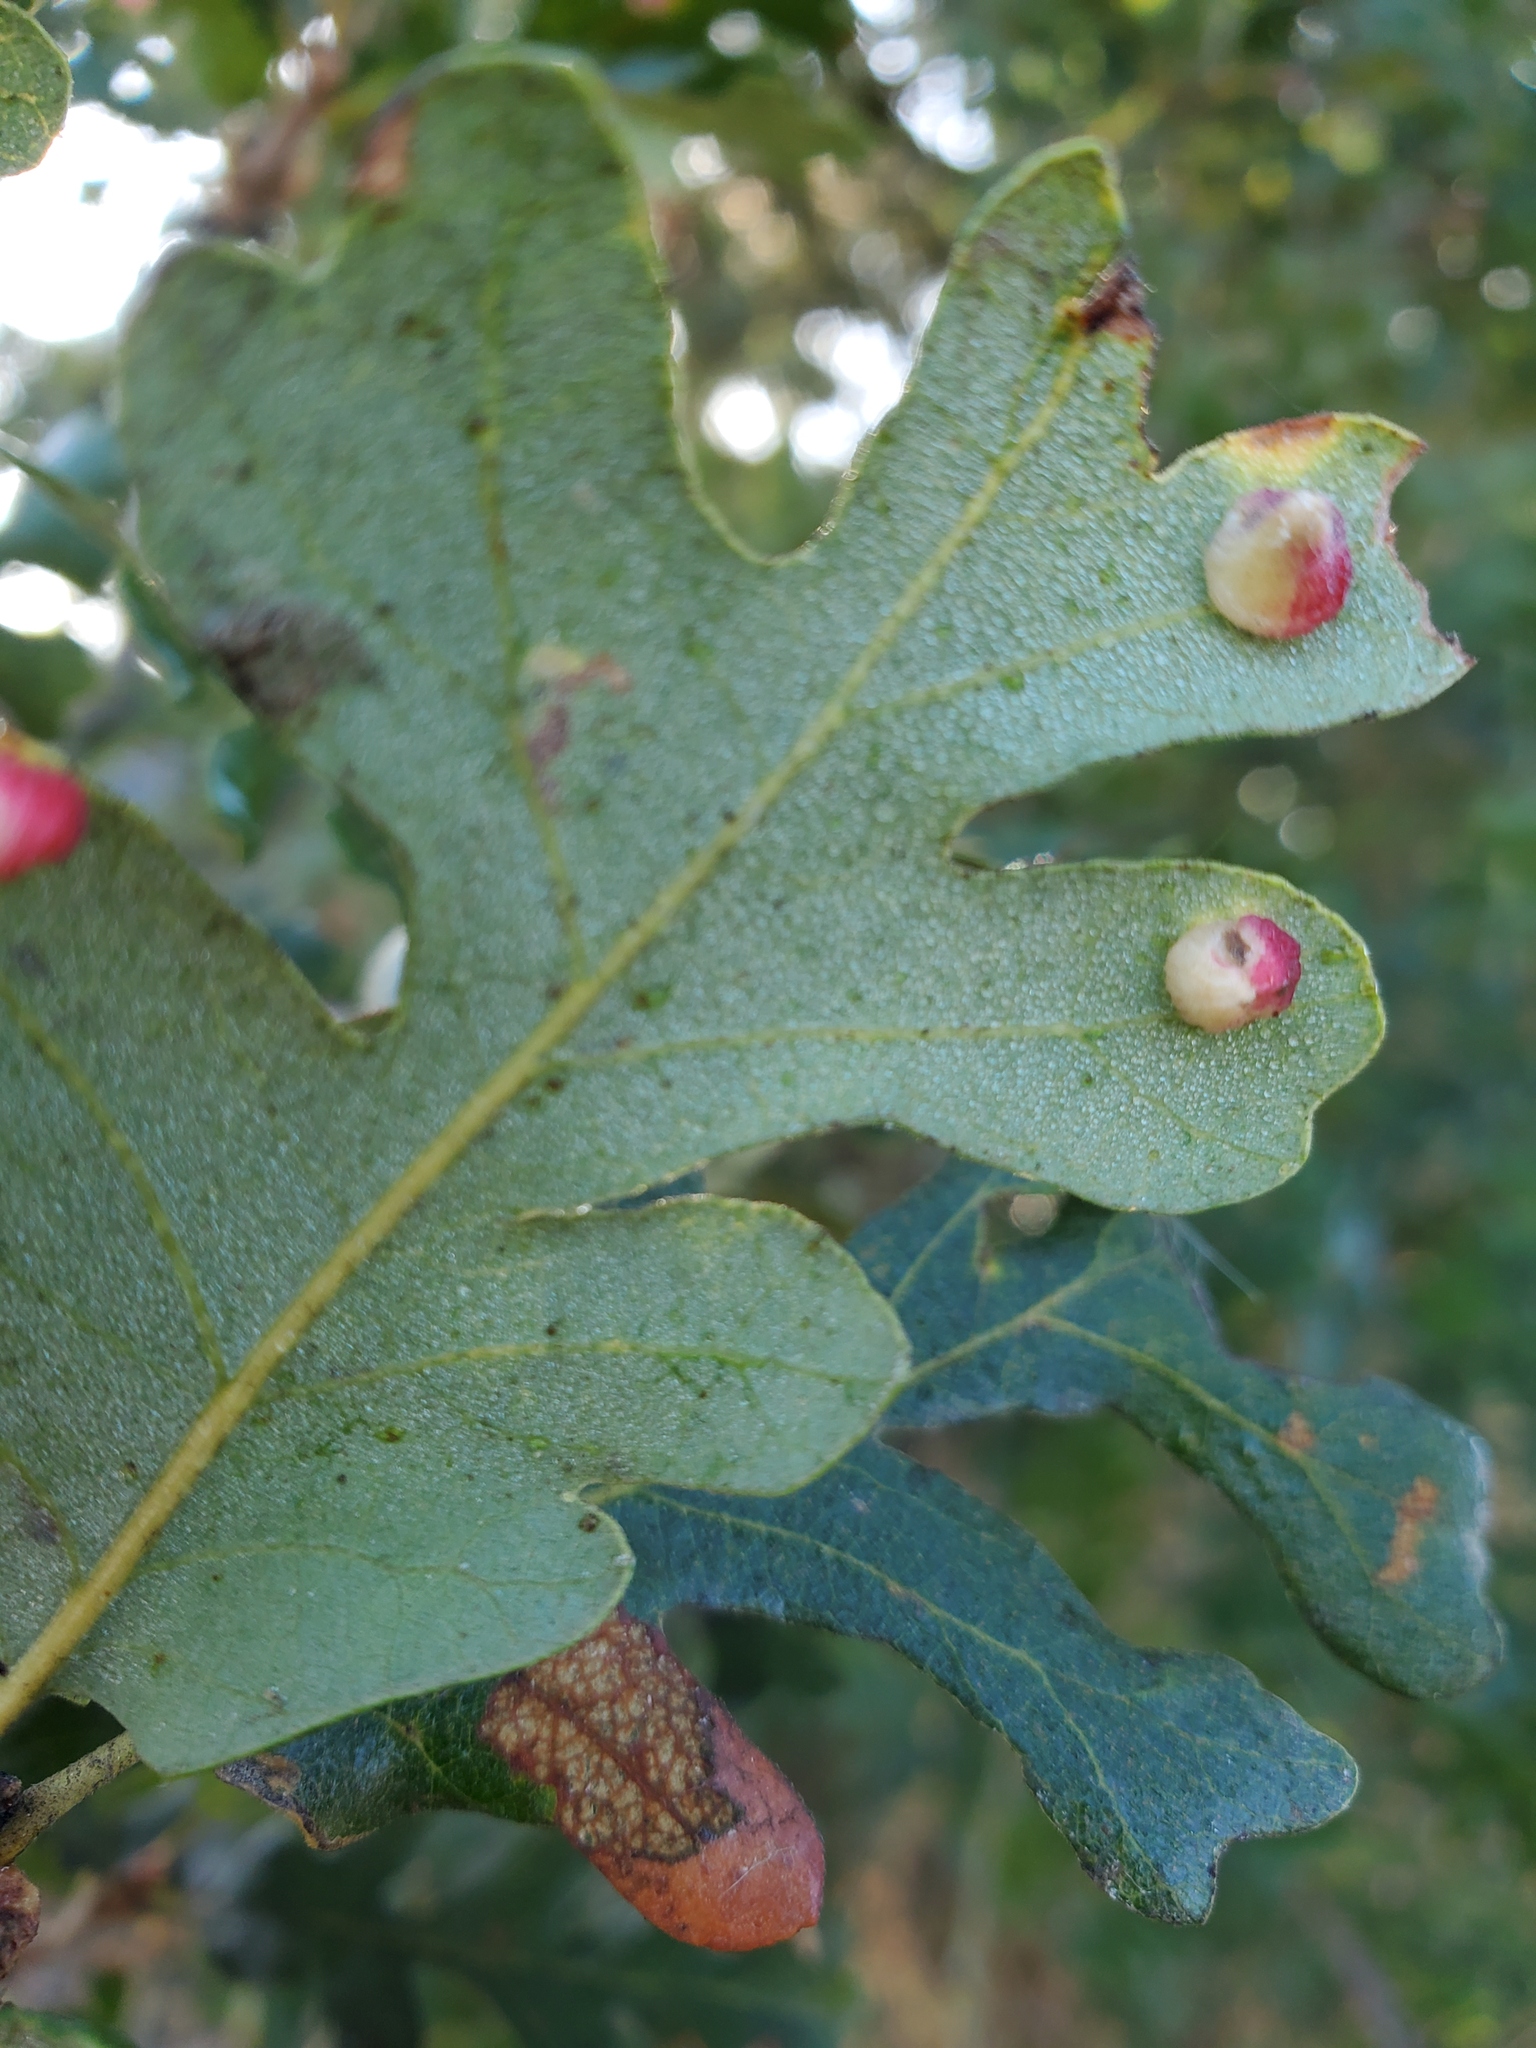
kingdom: Animalia
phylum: Arthropoda
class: Insecta
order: Hymenoptera
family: Cynipidae
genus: Andricus
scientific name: Andricus
